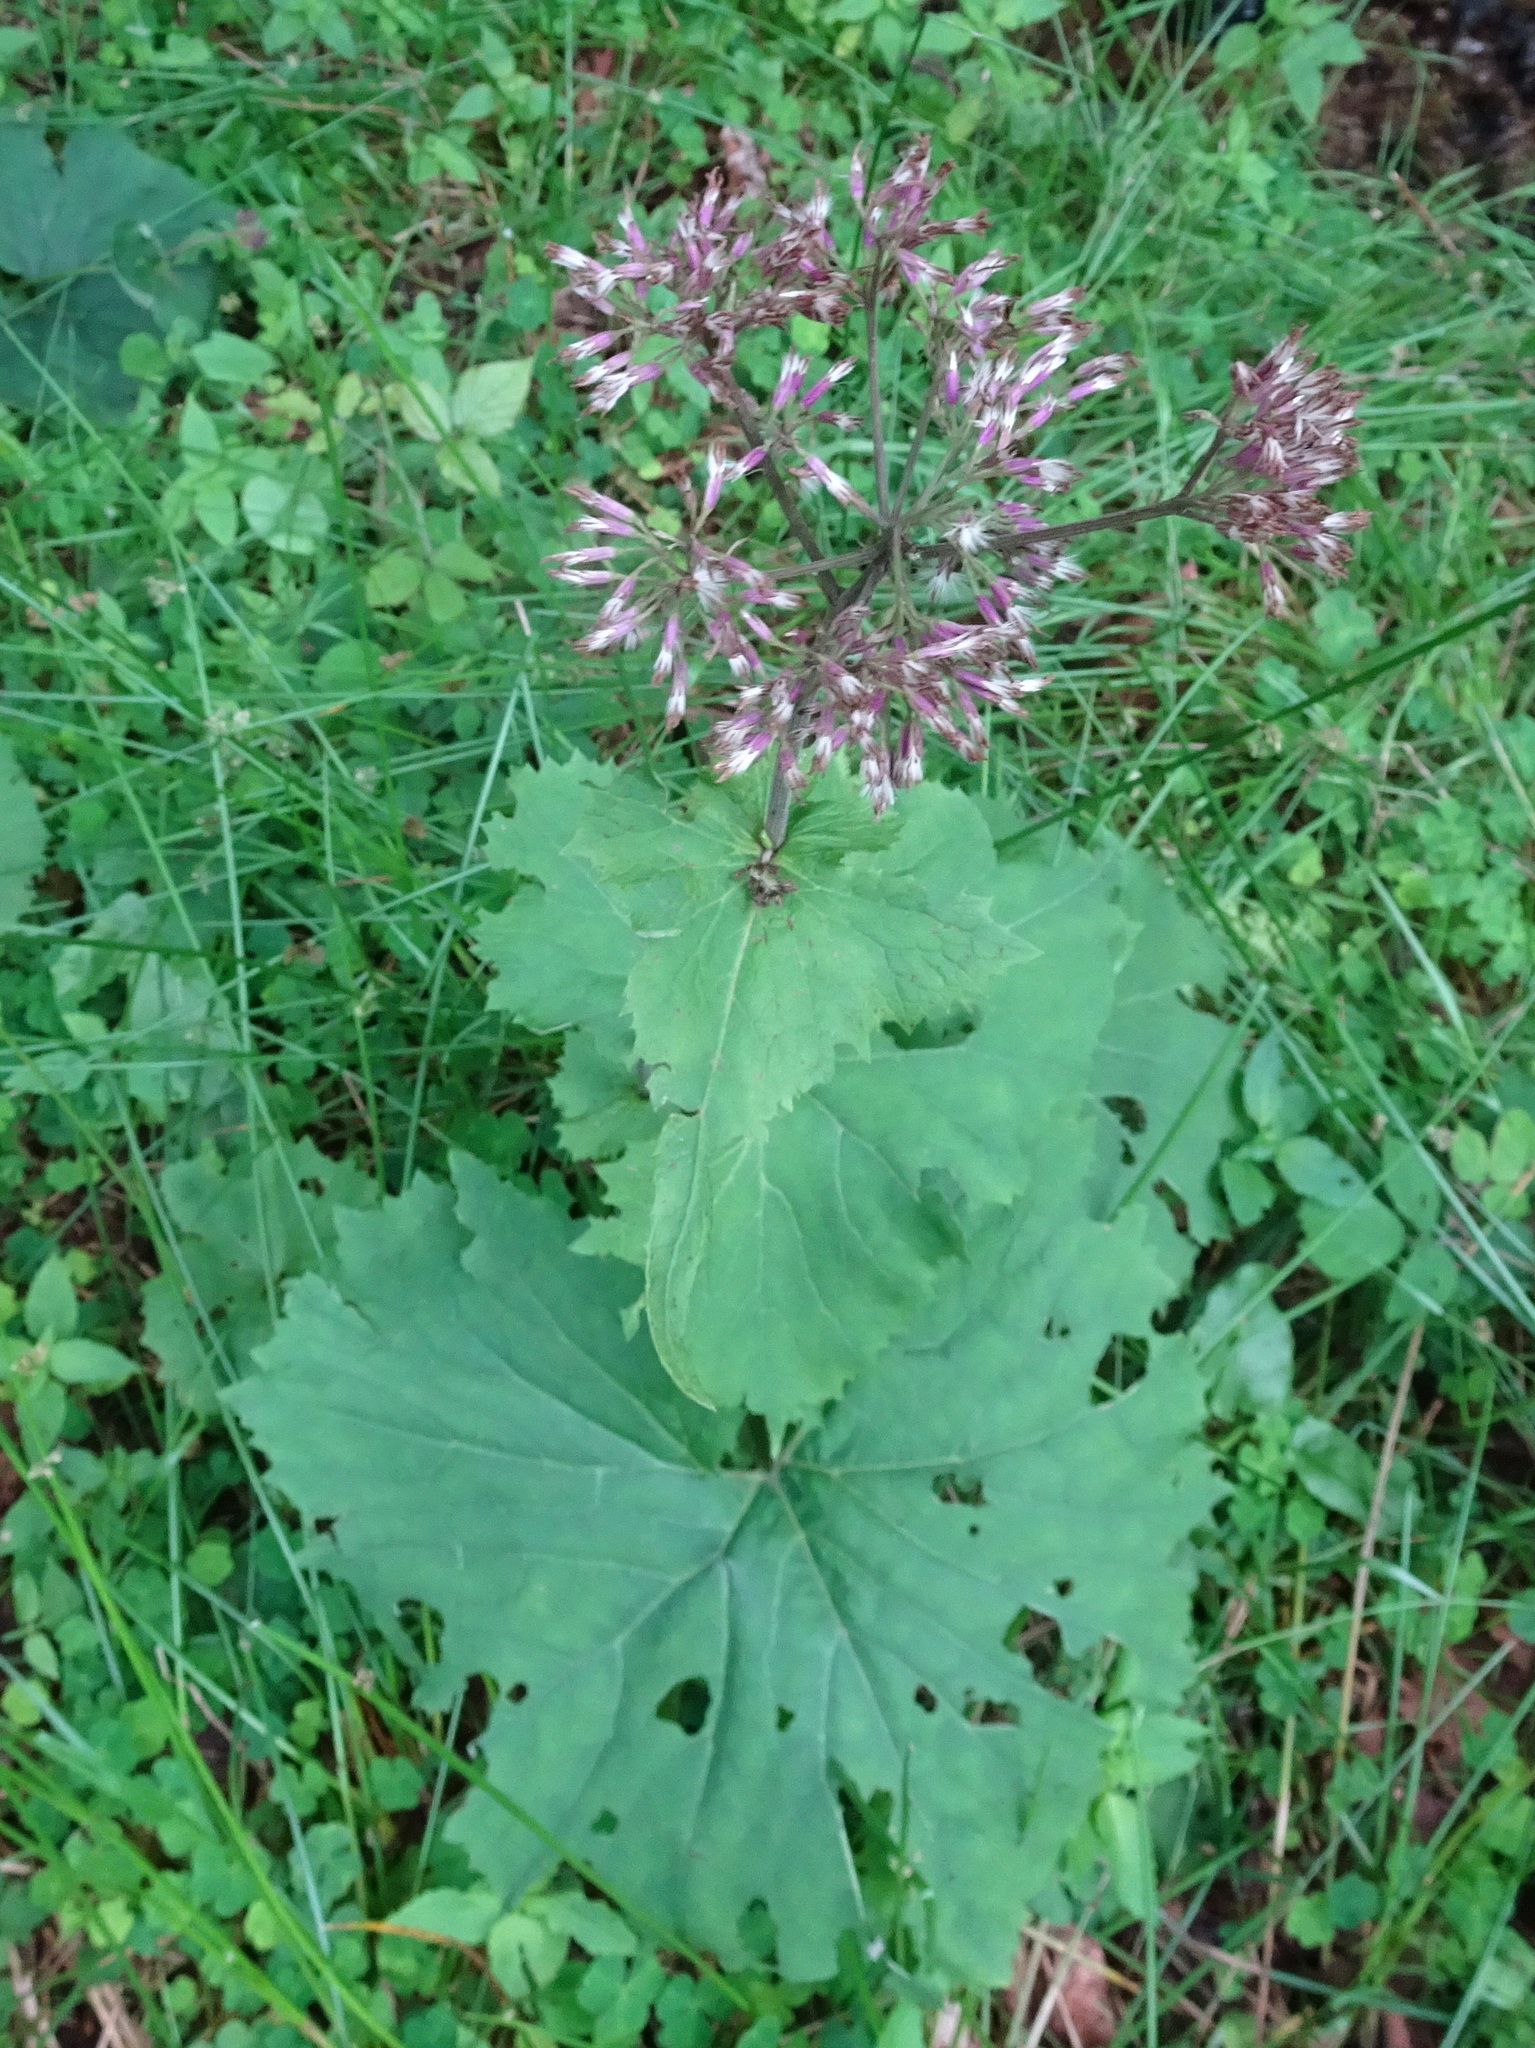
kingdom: Plantae
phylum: Tracheophyta
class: Magnoliopsida
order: Asterales
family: Asteraceae
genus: Adenostyles
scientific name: Adenostyles alliariae
